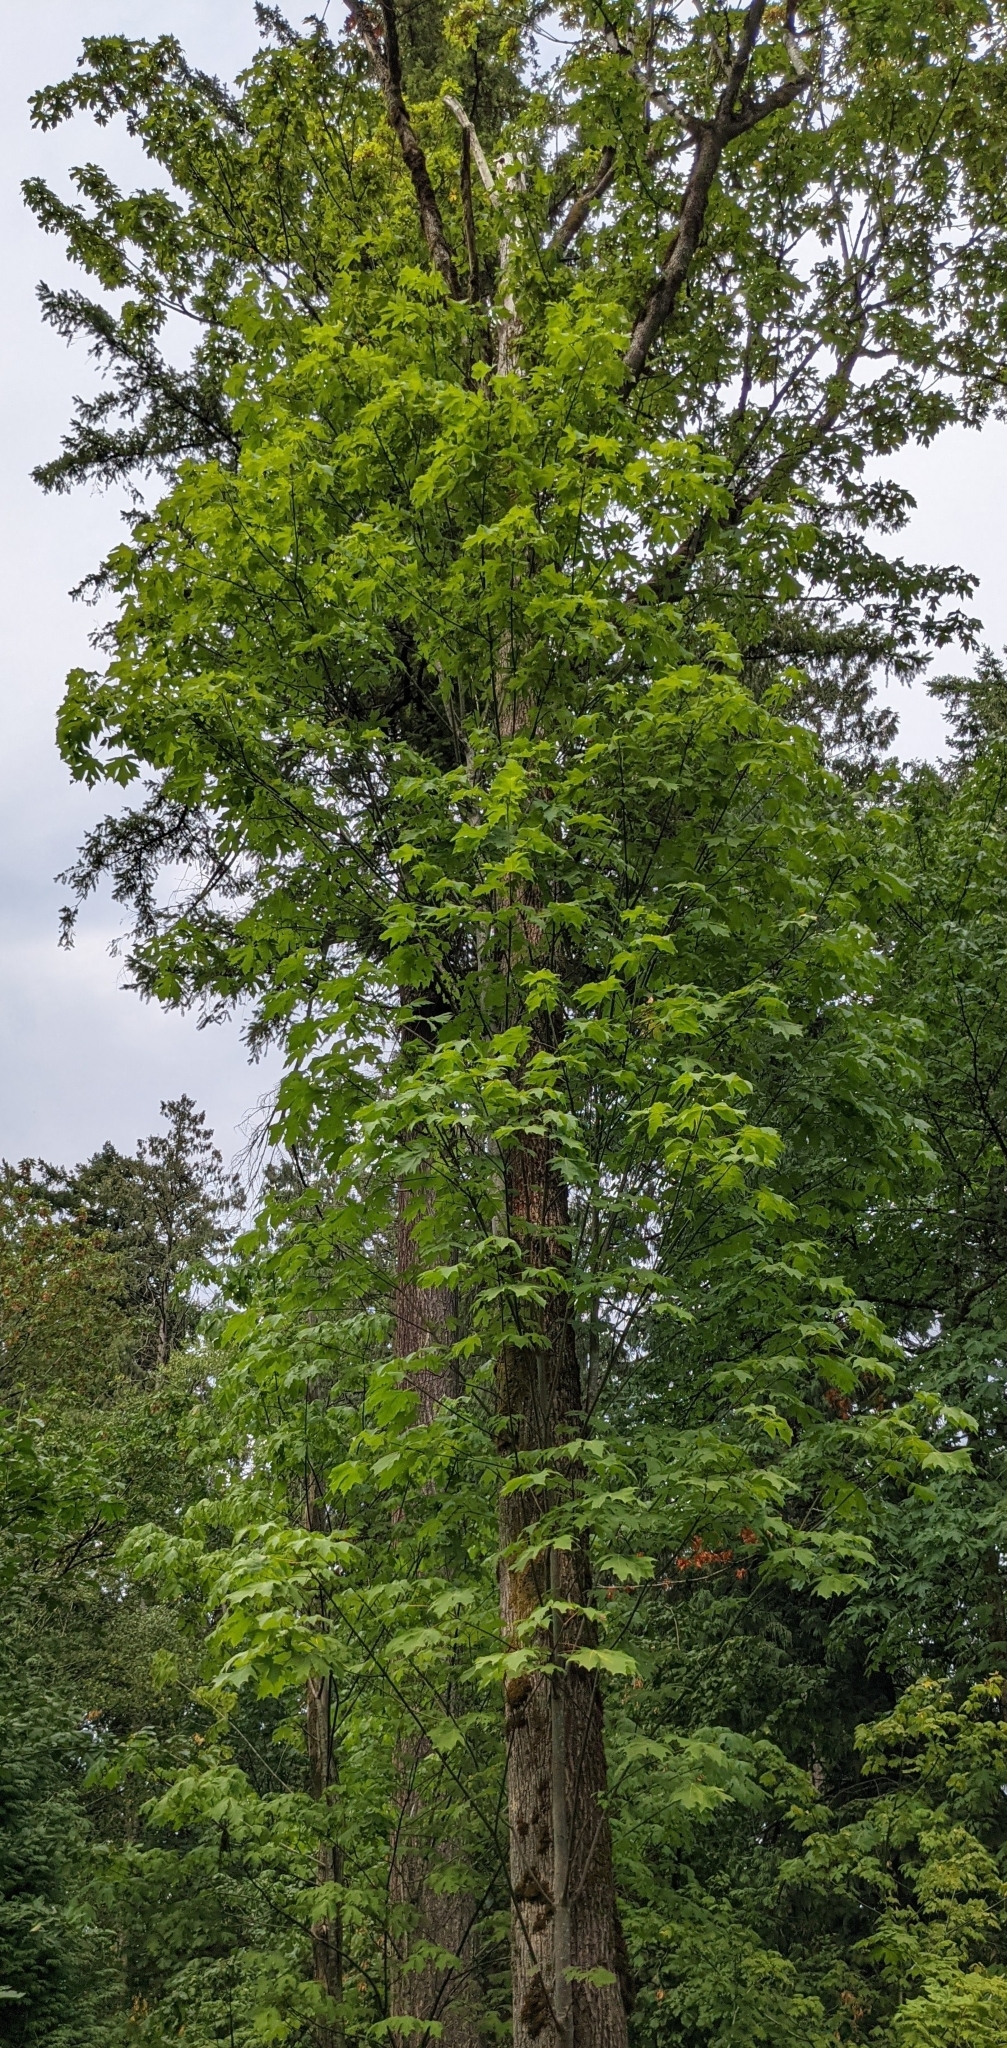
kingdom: Plantae
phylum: Tracheophyta
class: Magnoliopsida
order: Sapindales
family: Sapindaceae
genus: Acer
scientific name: Acer macrophyllum
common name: Oregon maple
